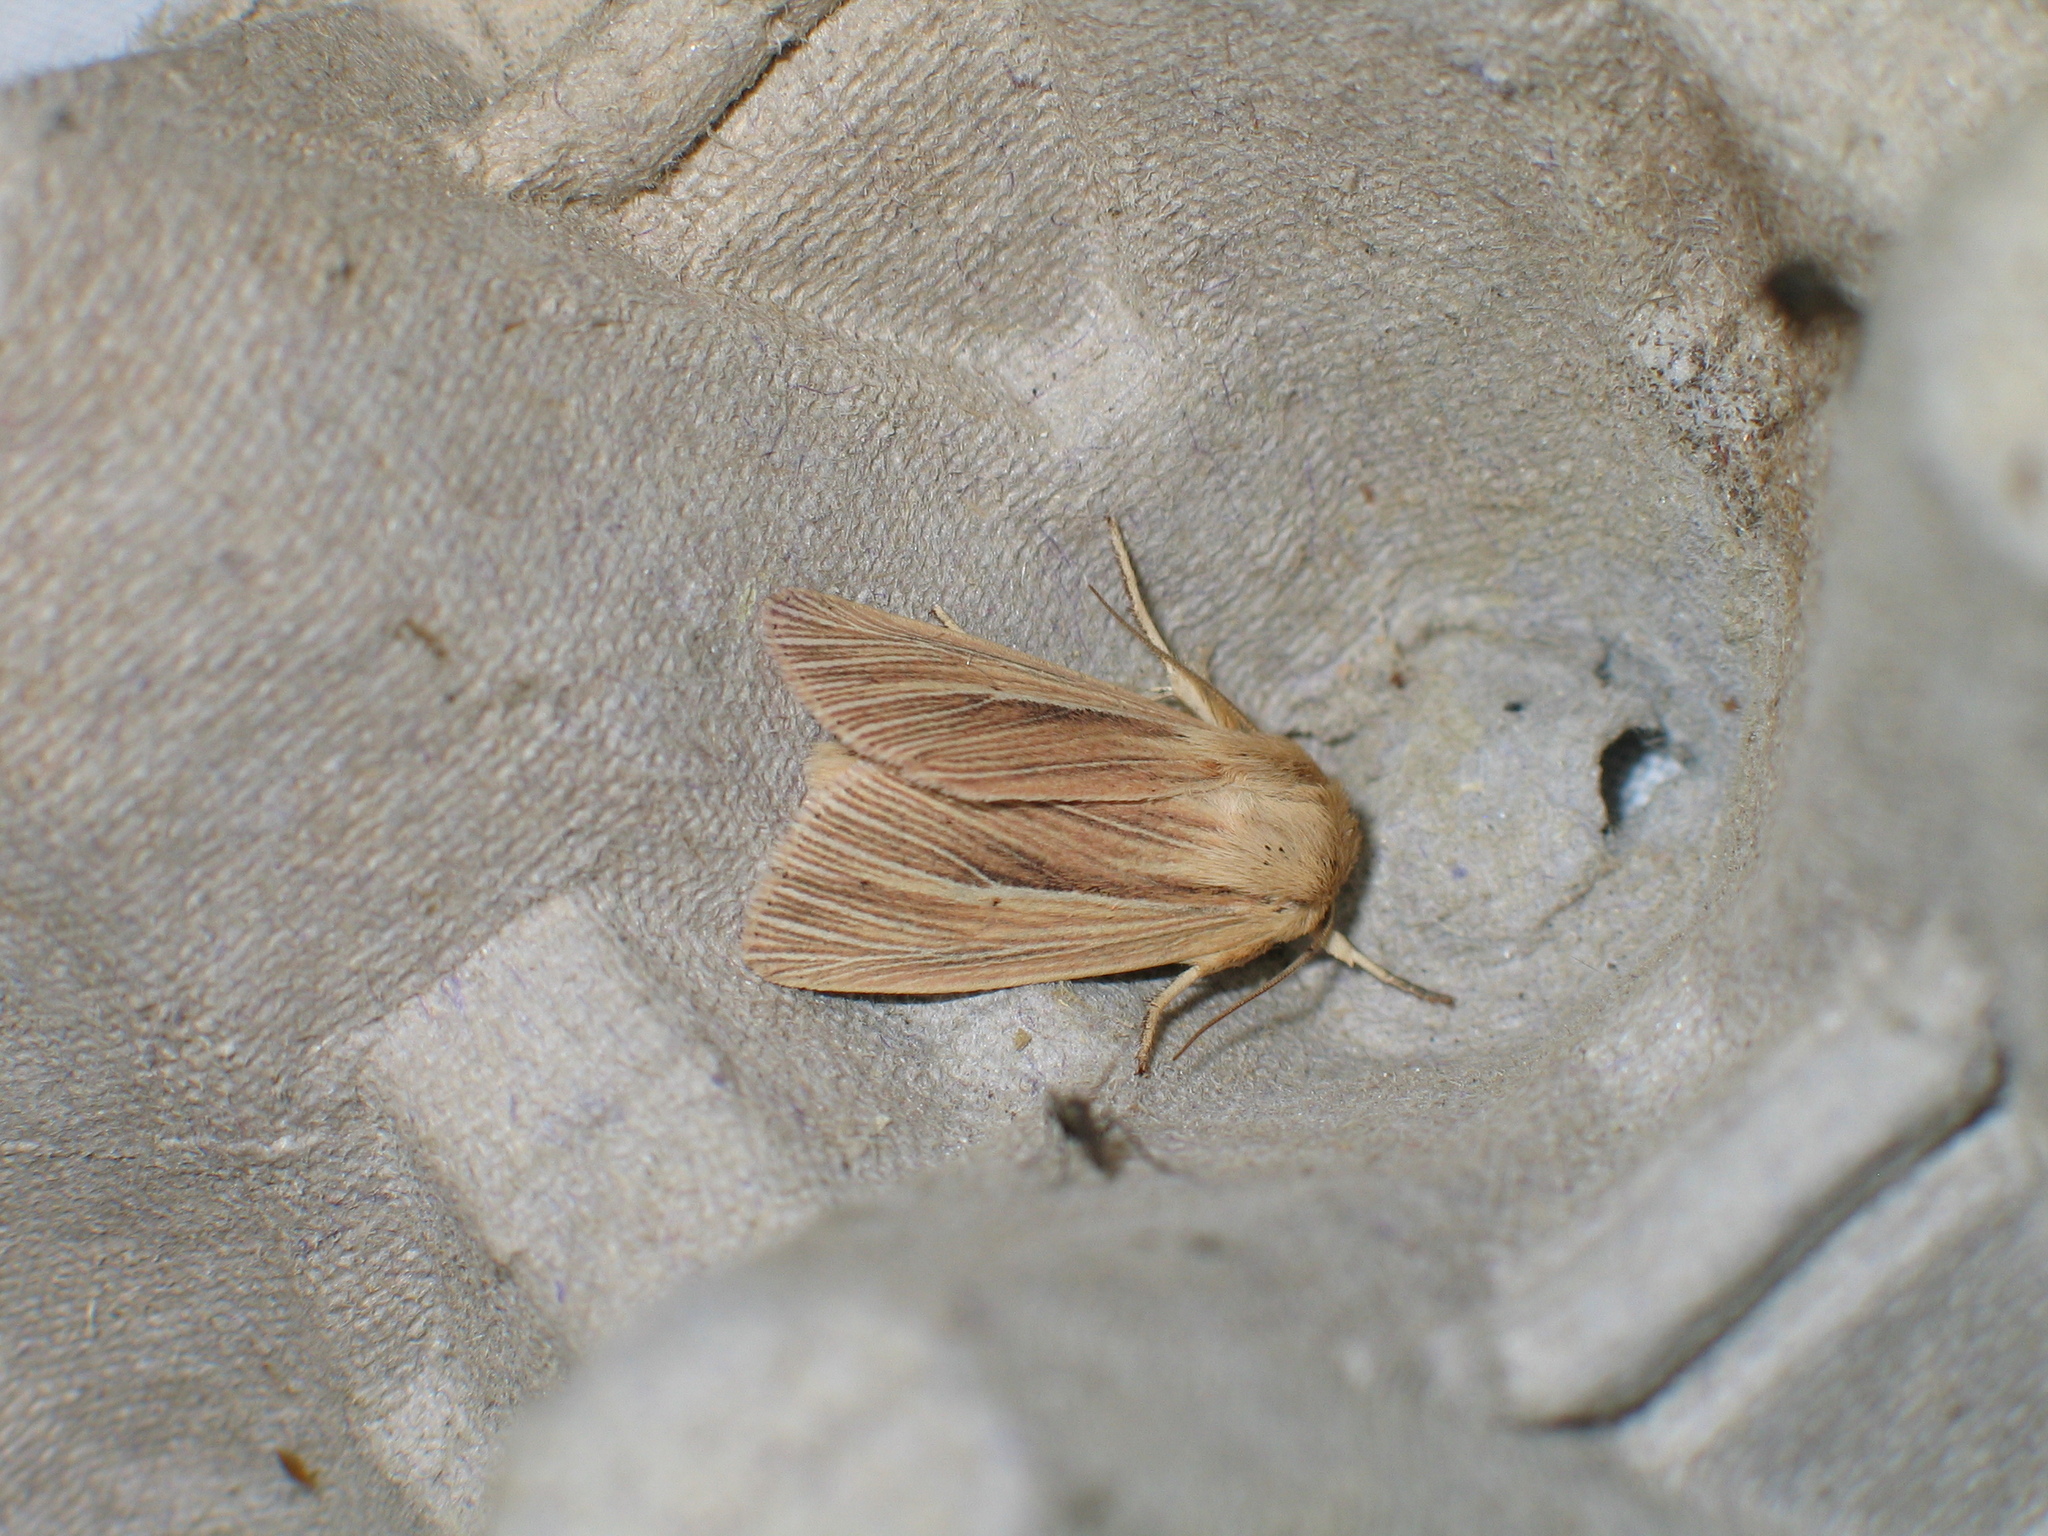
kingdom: Animalia
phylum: Arthropoda
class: Insecta
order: Lepidoptera
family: Noctuidae
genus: Mythimna
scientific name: Mythimna pallens
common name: Common wainscot
